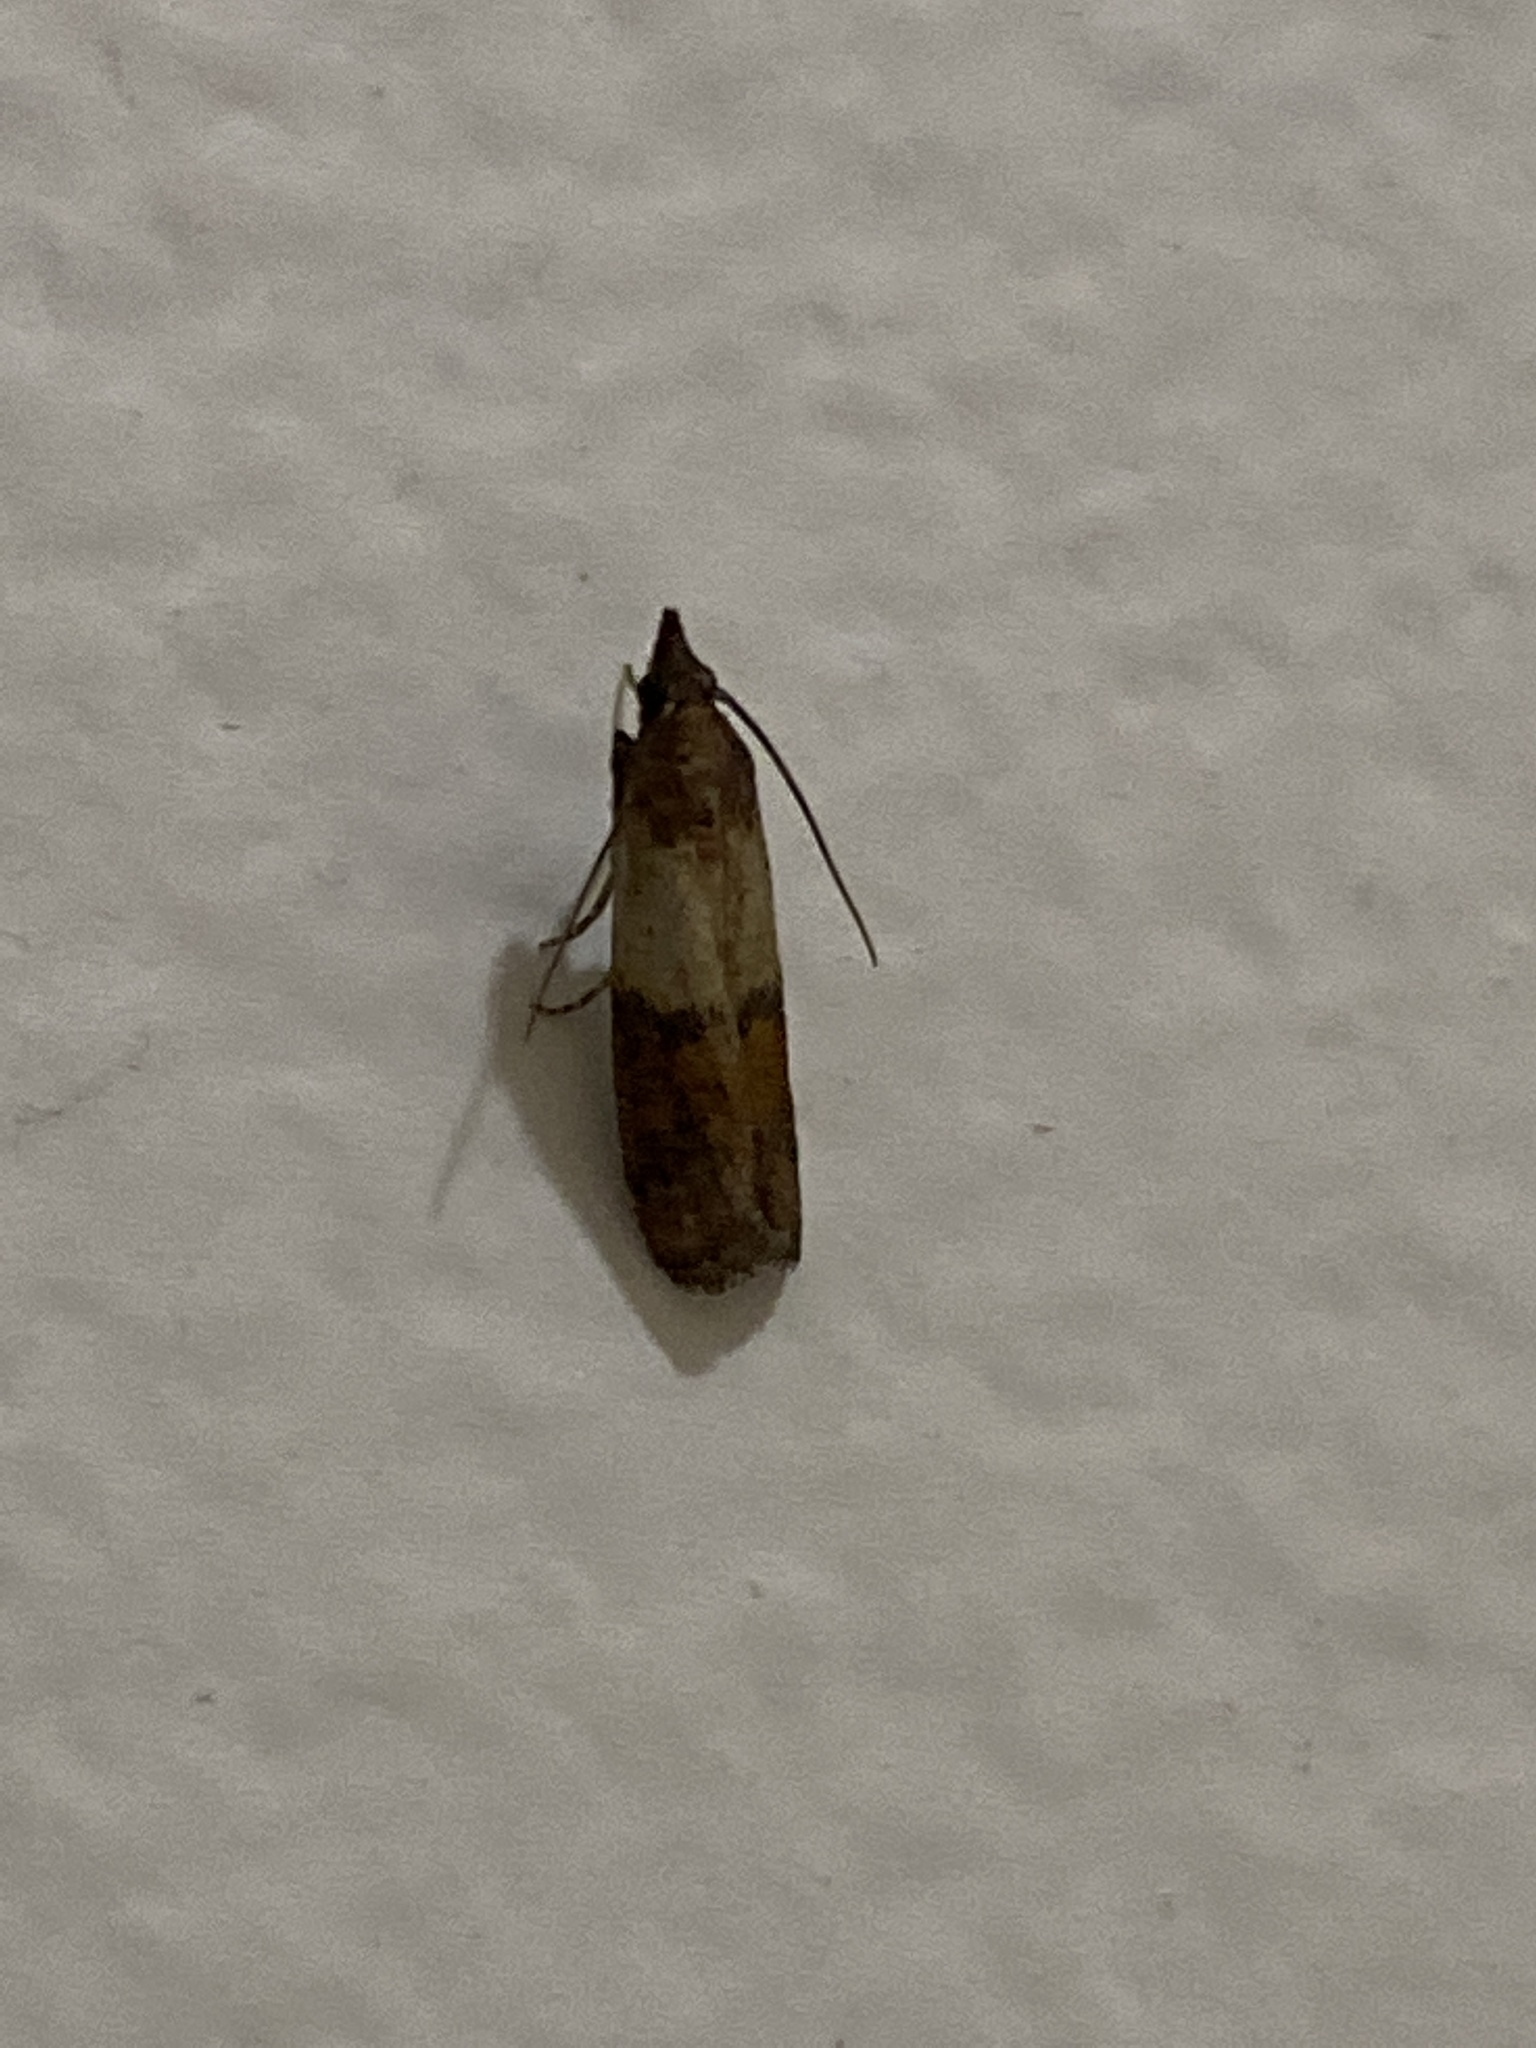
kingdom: Animalia
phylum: Arthropoda
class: Insecta
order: Lepidoptera
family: Pyralidae
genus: Plodia
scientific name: Plodia interpunctella
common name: Indian meal moth
